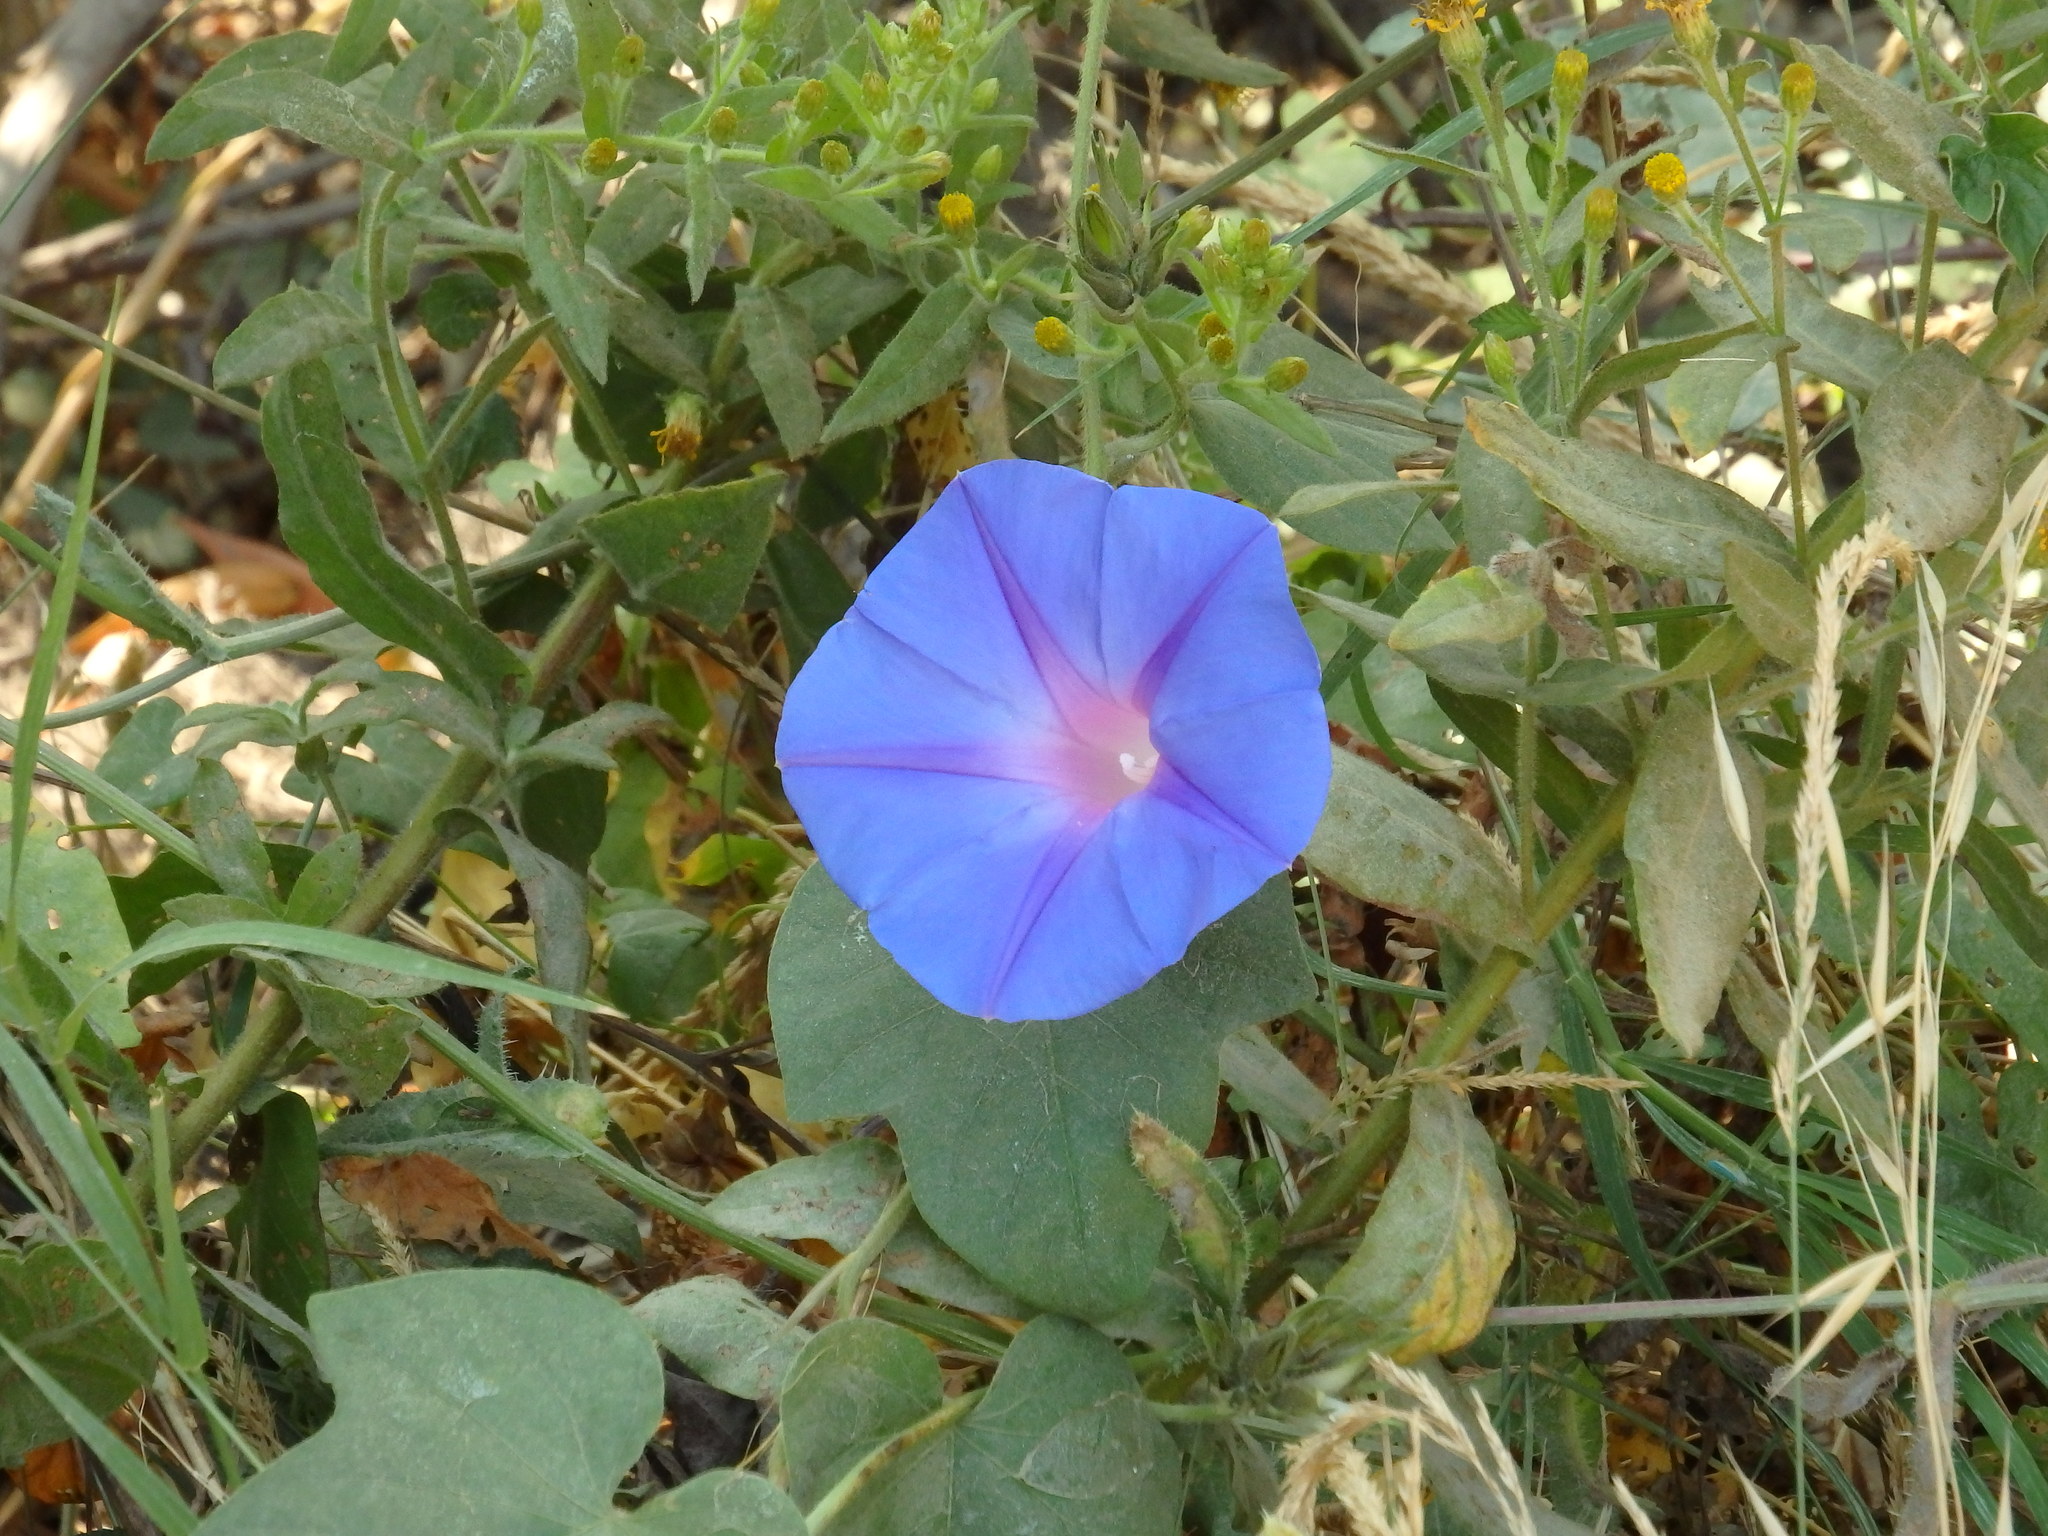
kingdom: Plantae
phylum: Tracheophyta
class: Magnoliopsida
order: Solanales
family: Convolvulaceae
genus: Ipomoea
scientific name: Ipomoea indica
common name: Blue dawnflower
